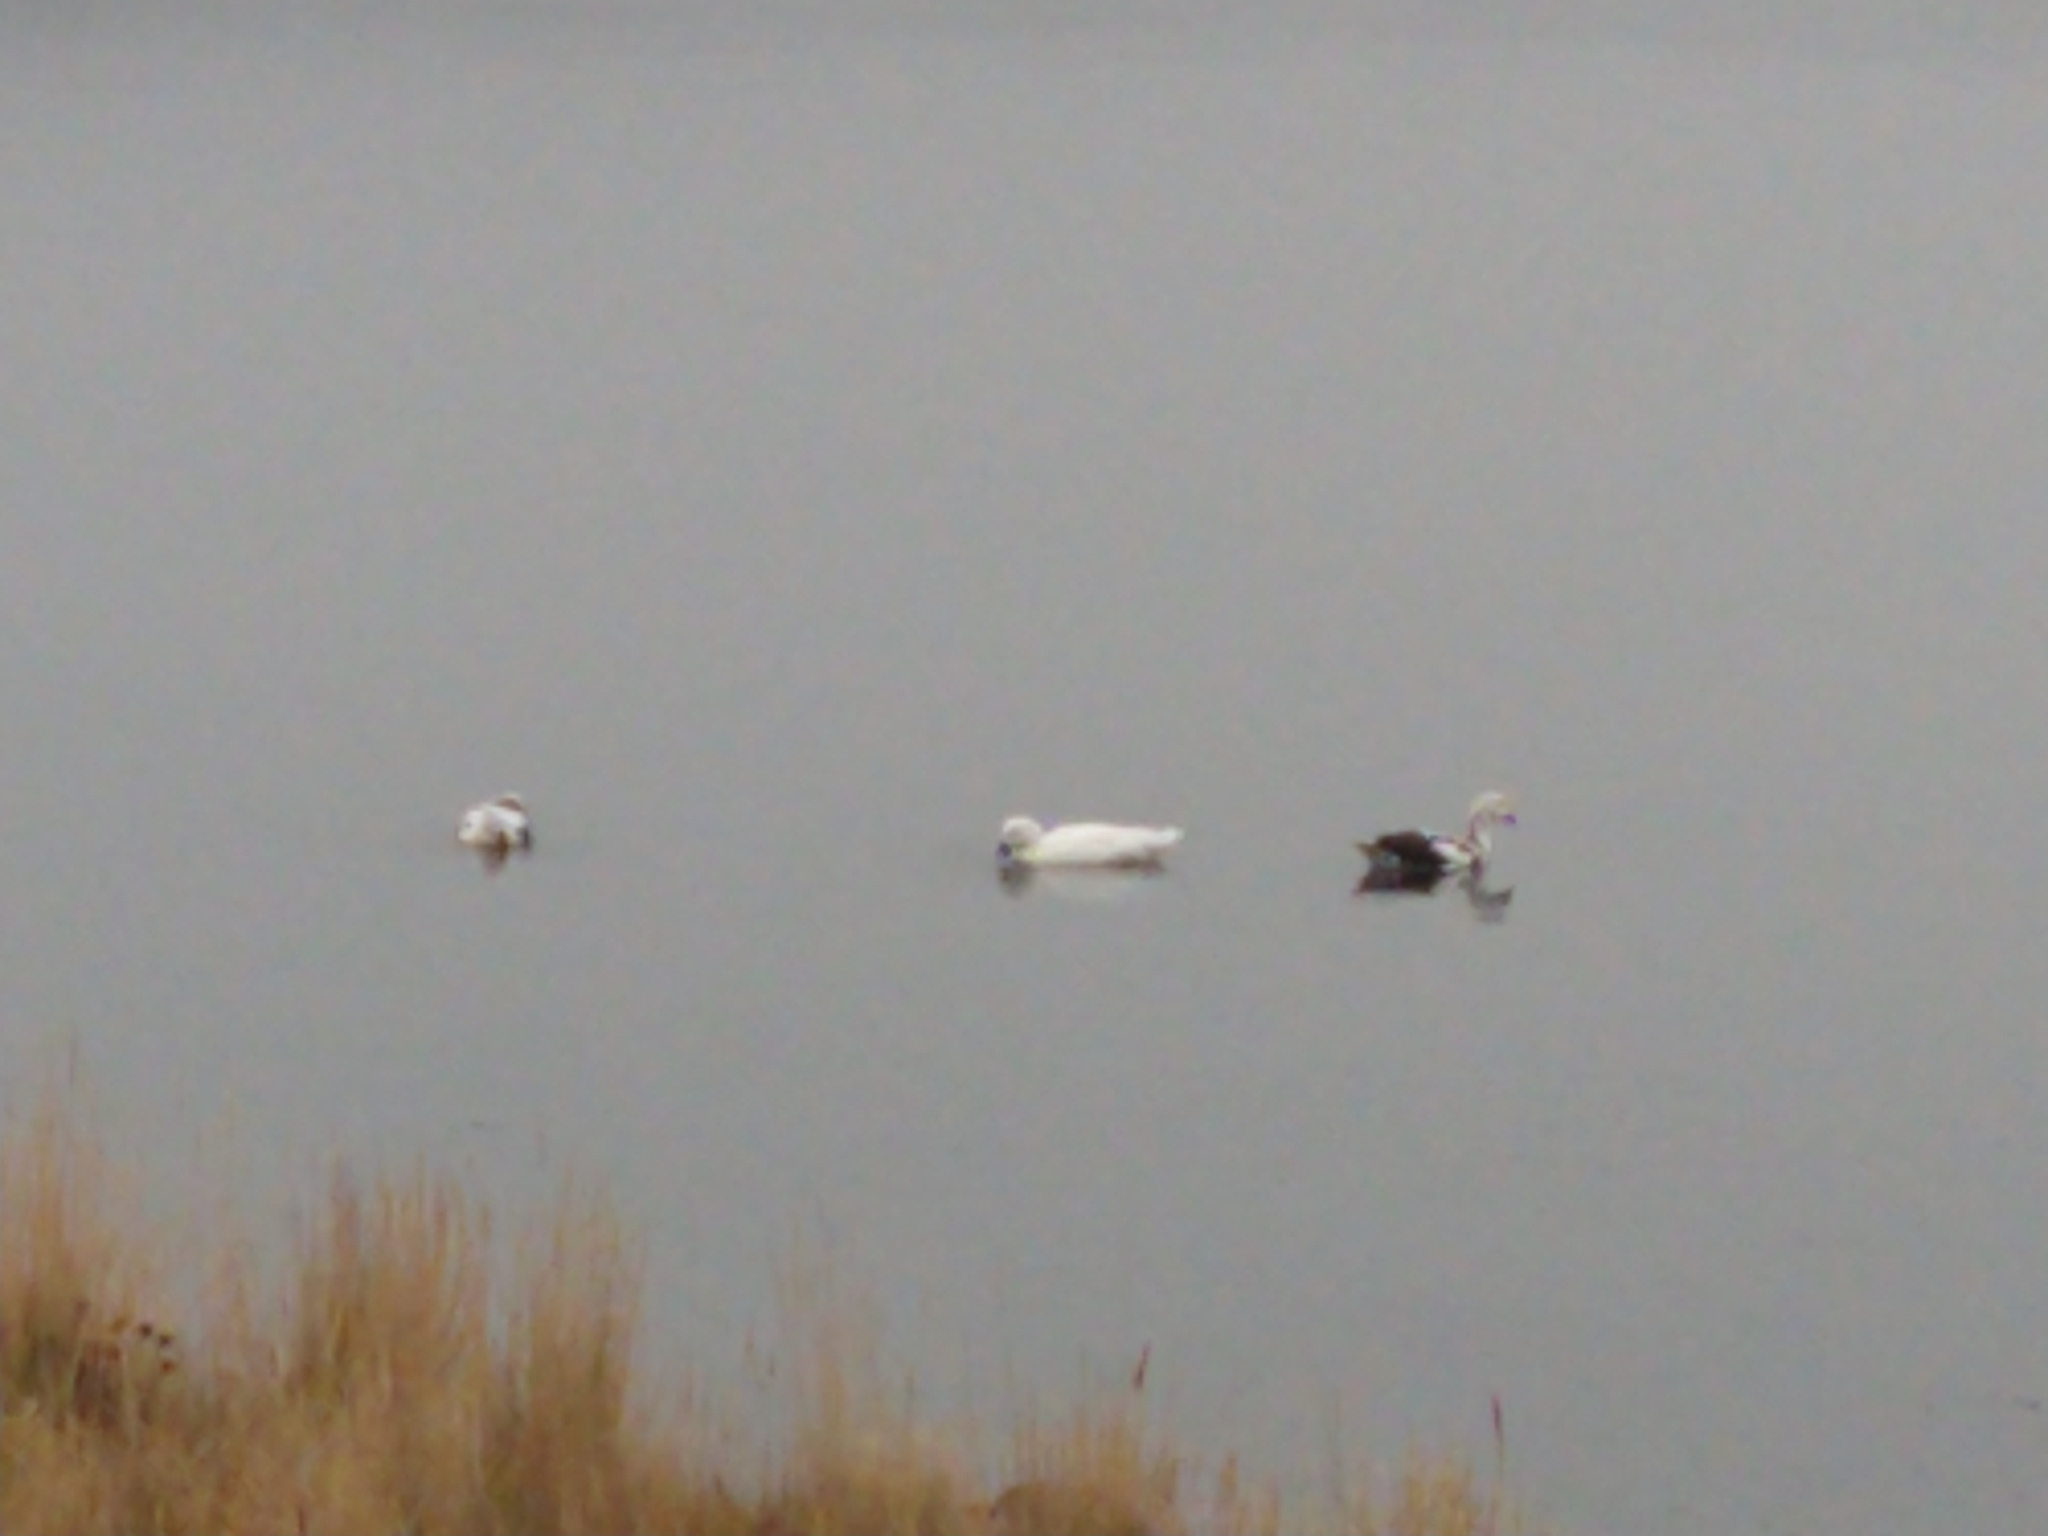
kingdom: Animalia
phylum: Chordata
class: Aves
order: Anseriformes
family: Anatidae
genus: Chloephaga
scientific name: Chloephaga hybrida
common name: Kelp goose
